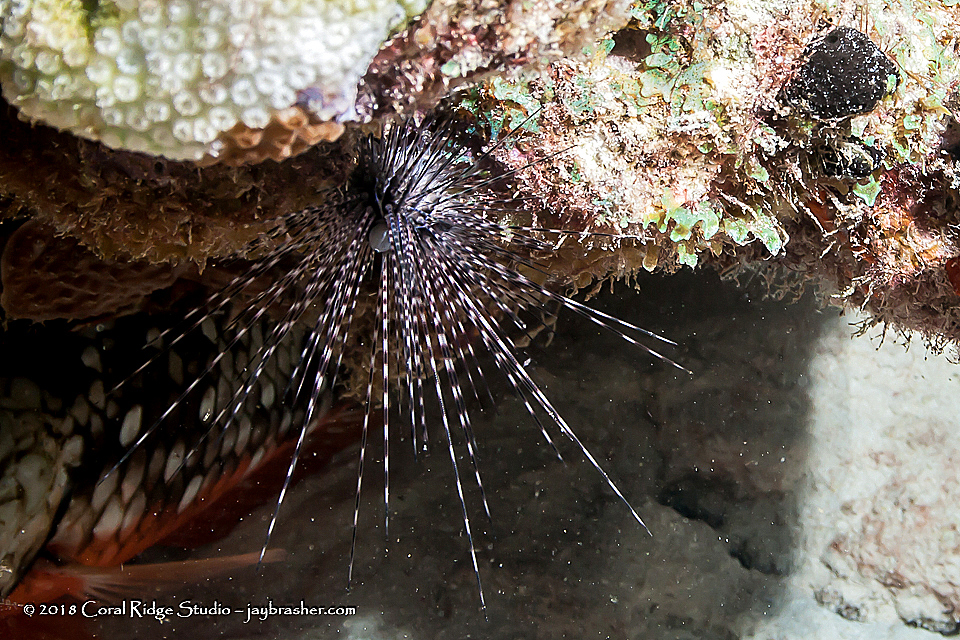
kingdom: Animalia
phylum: Echinodermata
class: Echinoidea
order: Diadematoida
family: Diadematidae
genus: Diadema
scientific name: Diadema antillarum
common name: Spiny urchin
